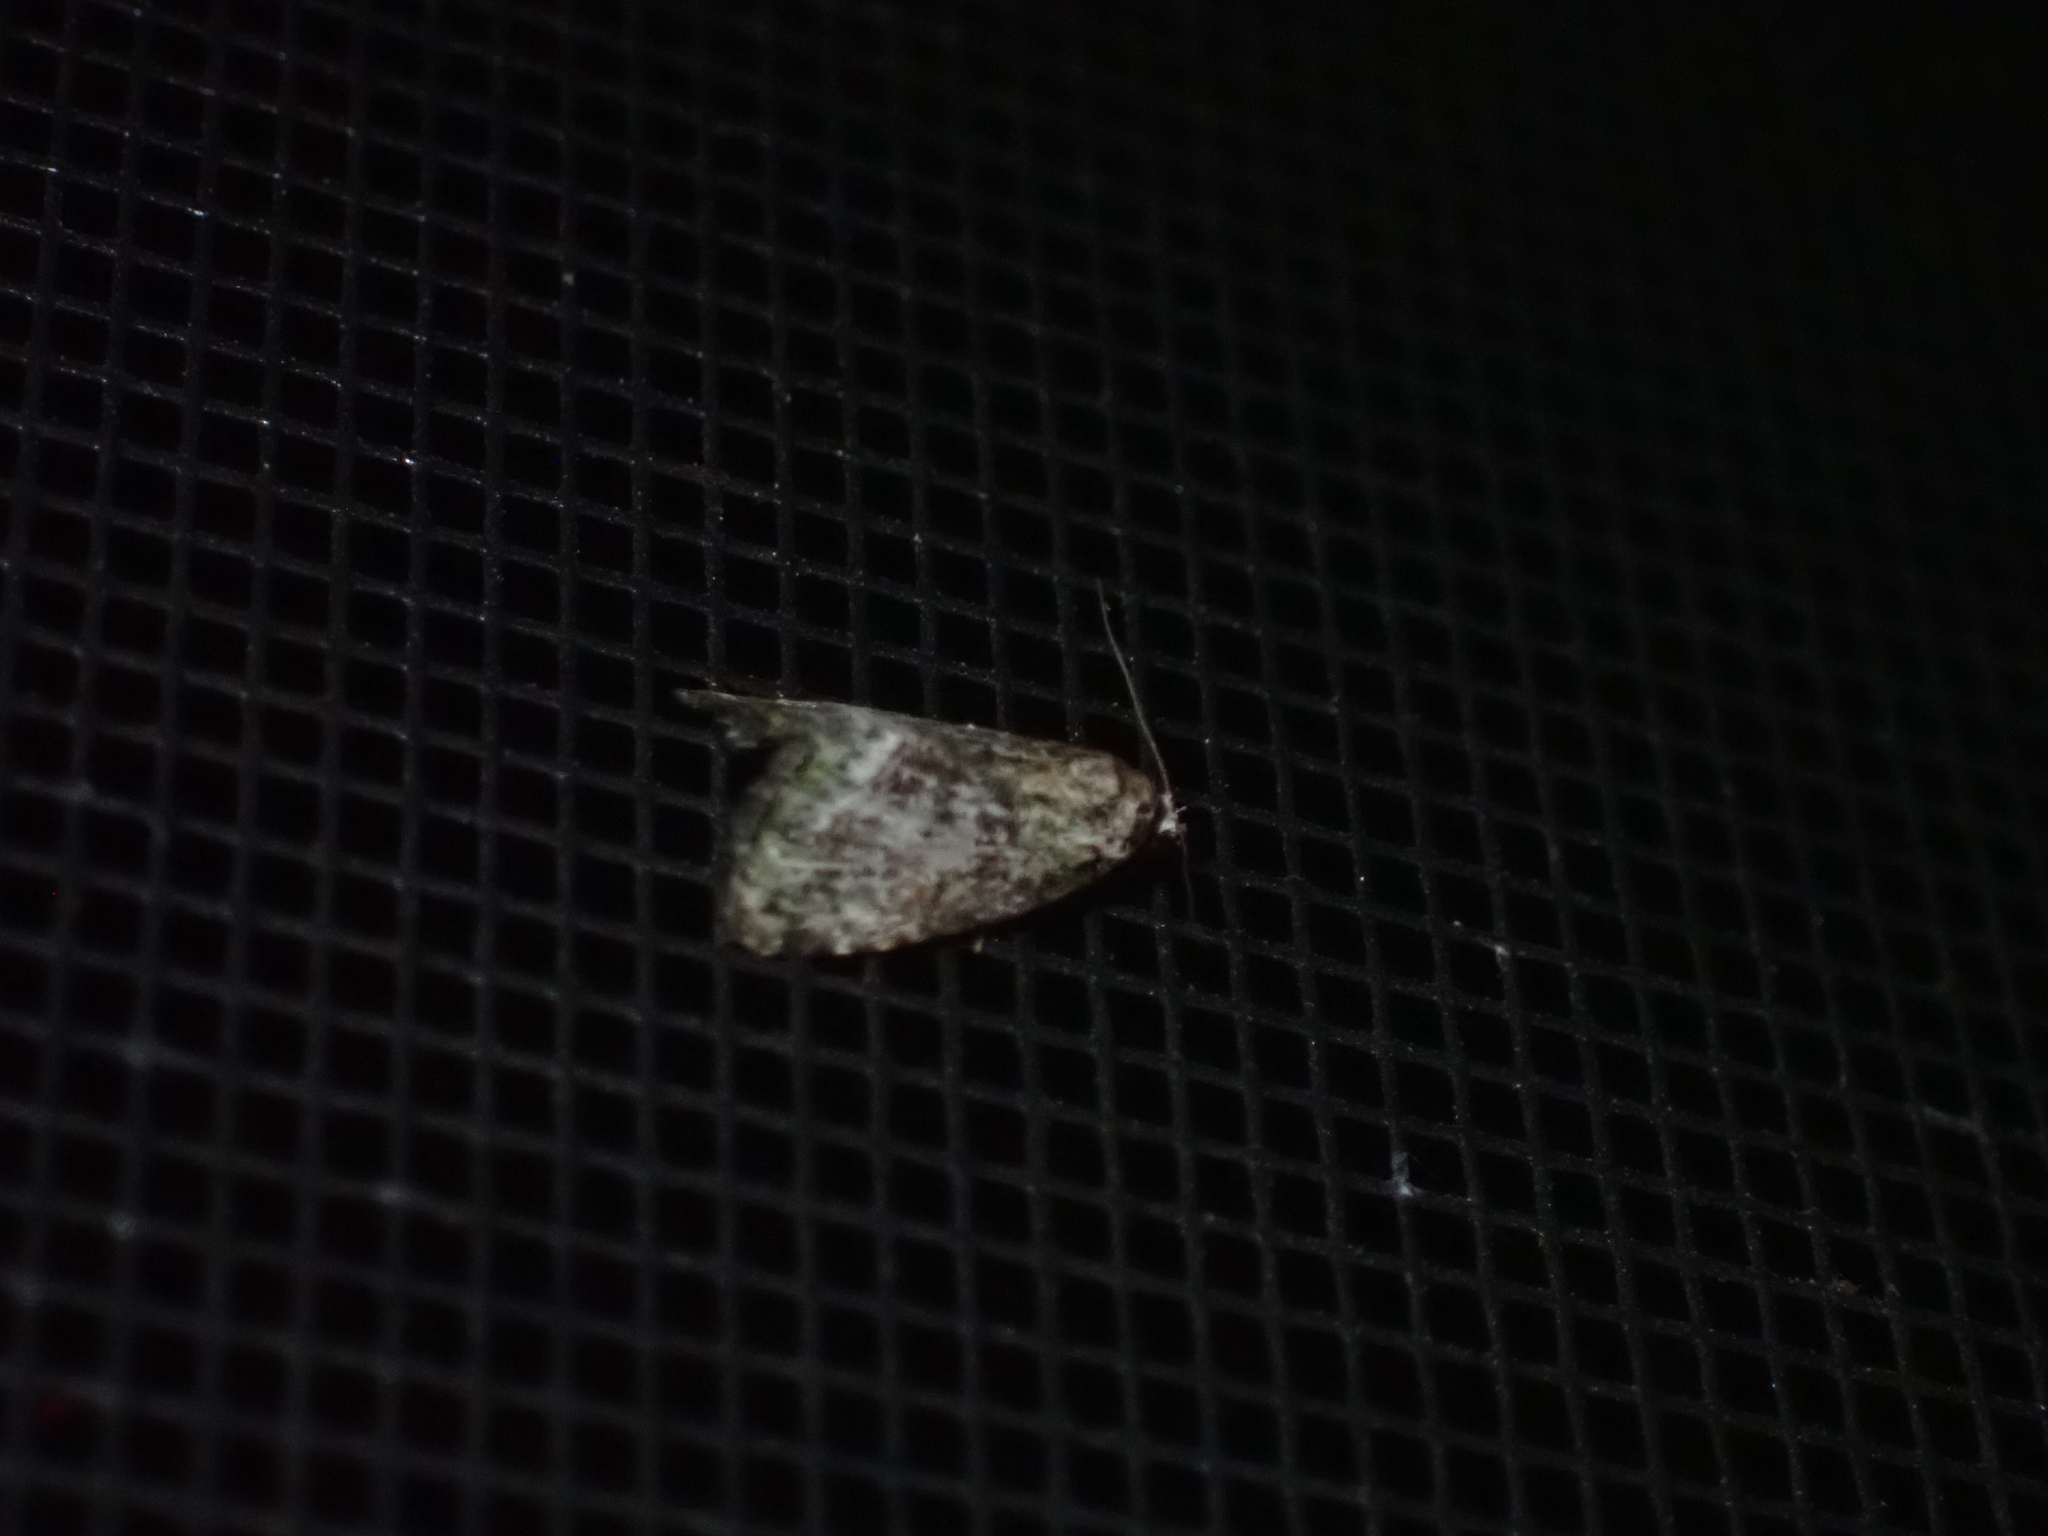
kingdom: Animalia
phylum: Arthropoda
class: Insecta
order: Lepidoptera
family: Noctuidae
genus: Lithacodia
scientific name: Lithacodia musta
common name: Small mossy glyph
